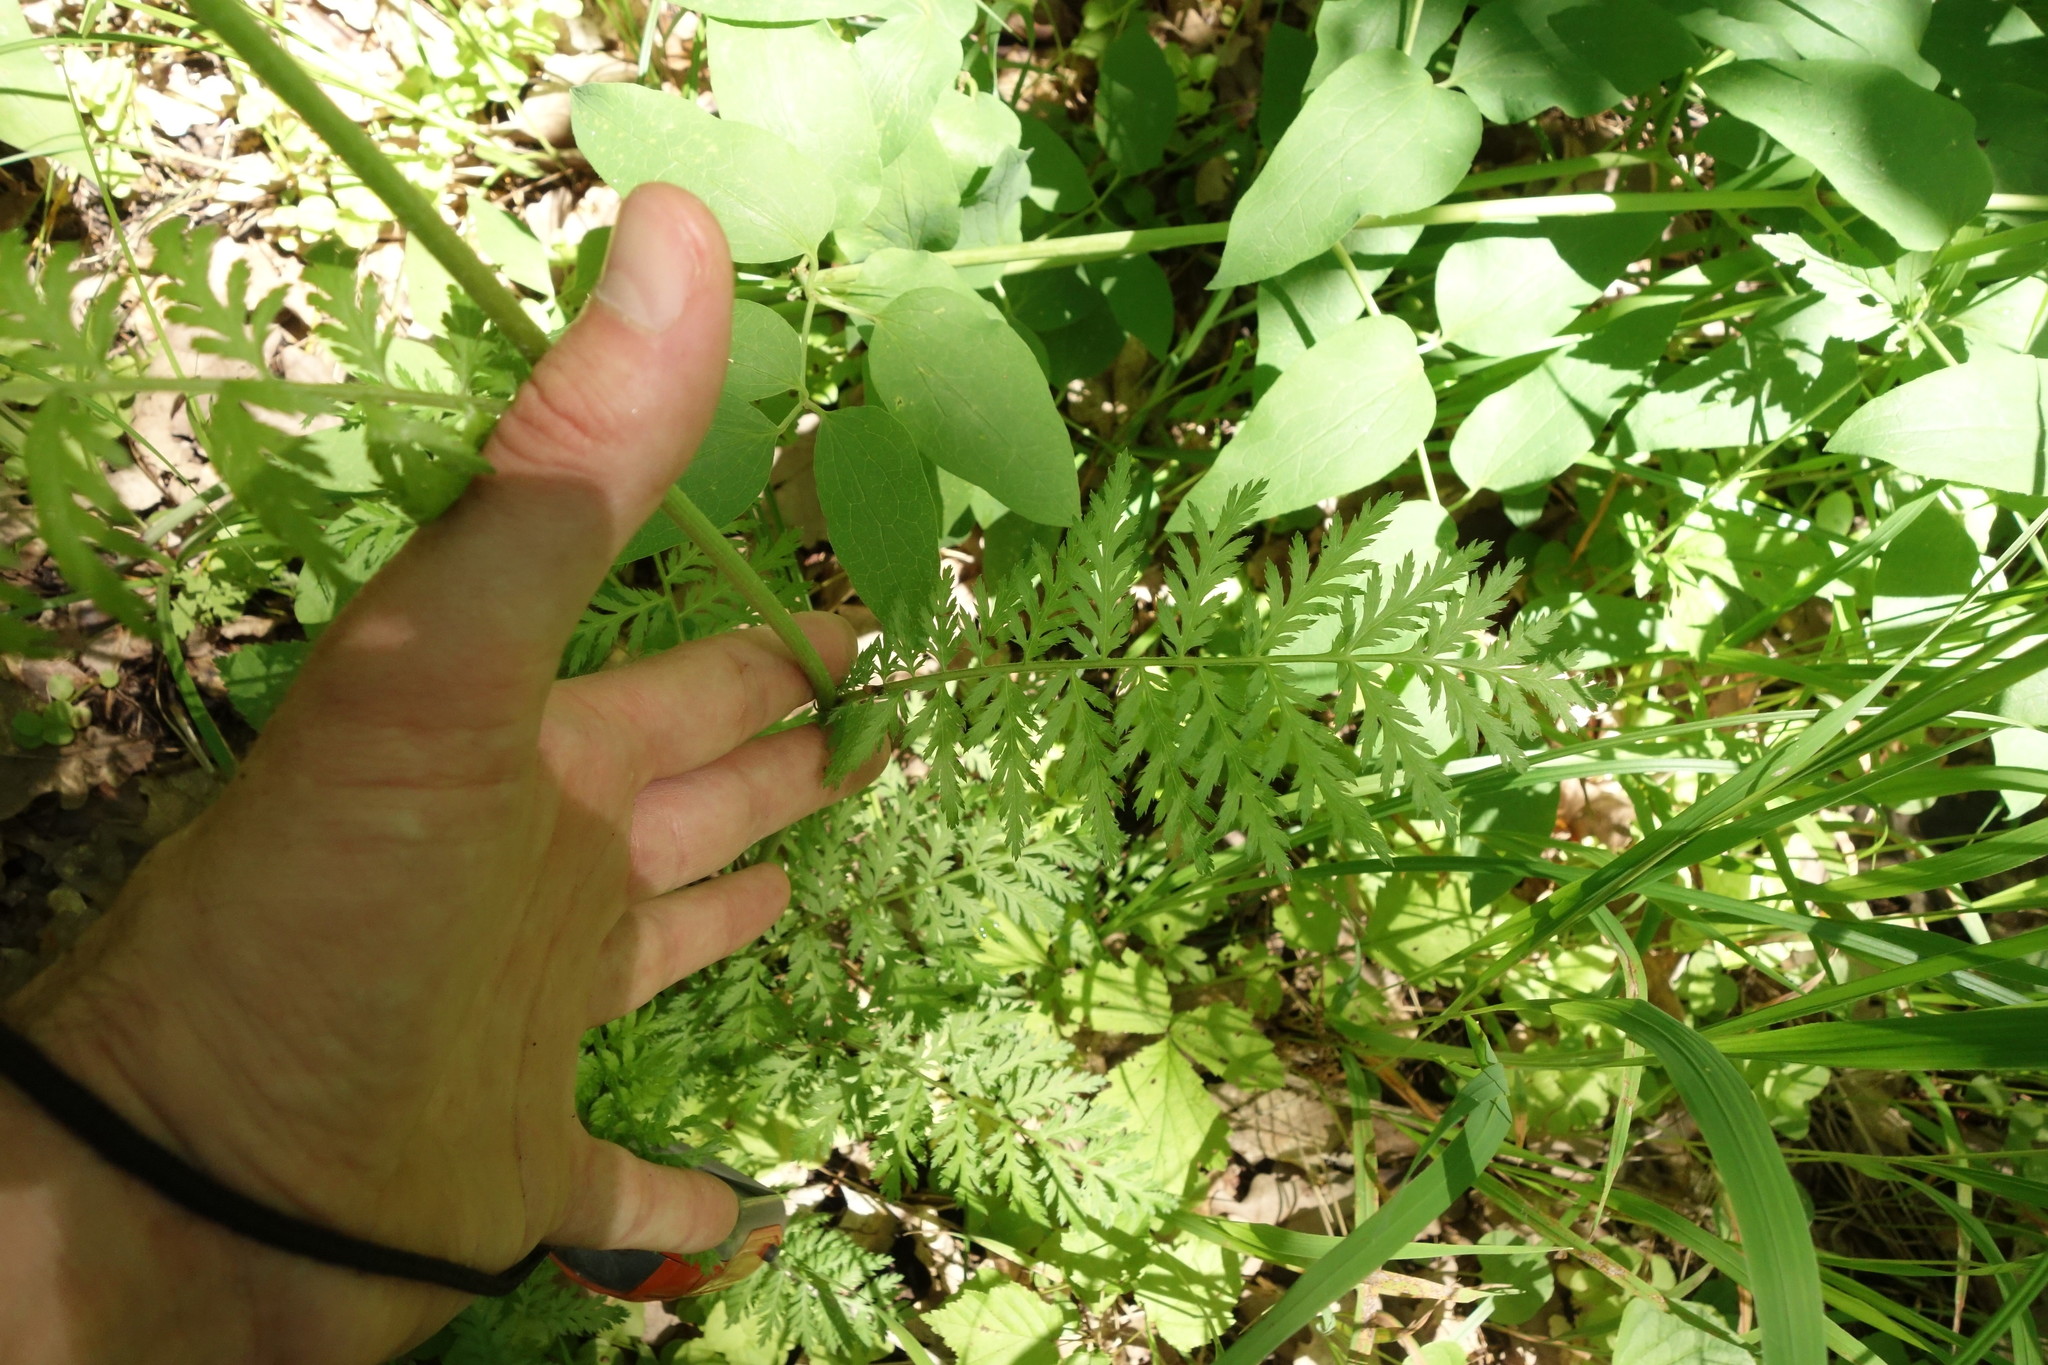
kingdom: Plantae
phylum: Tracheophyta
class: Magnoliopsida
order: Asterales
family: Asteraceae
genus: Tanacetum
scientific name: Tanacetum corymbosum
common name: Scentless feverfew
